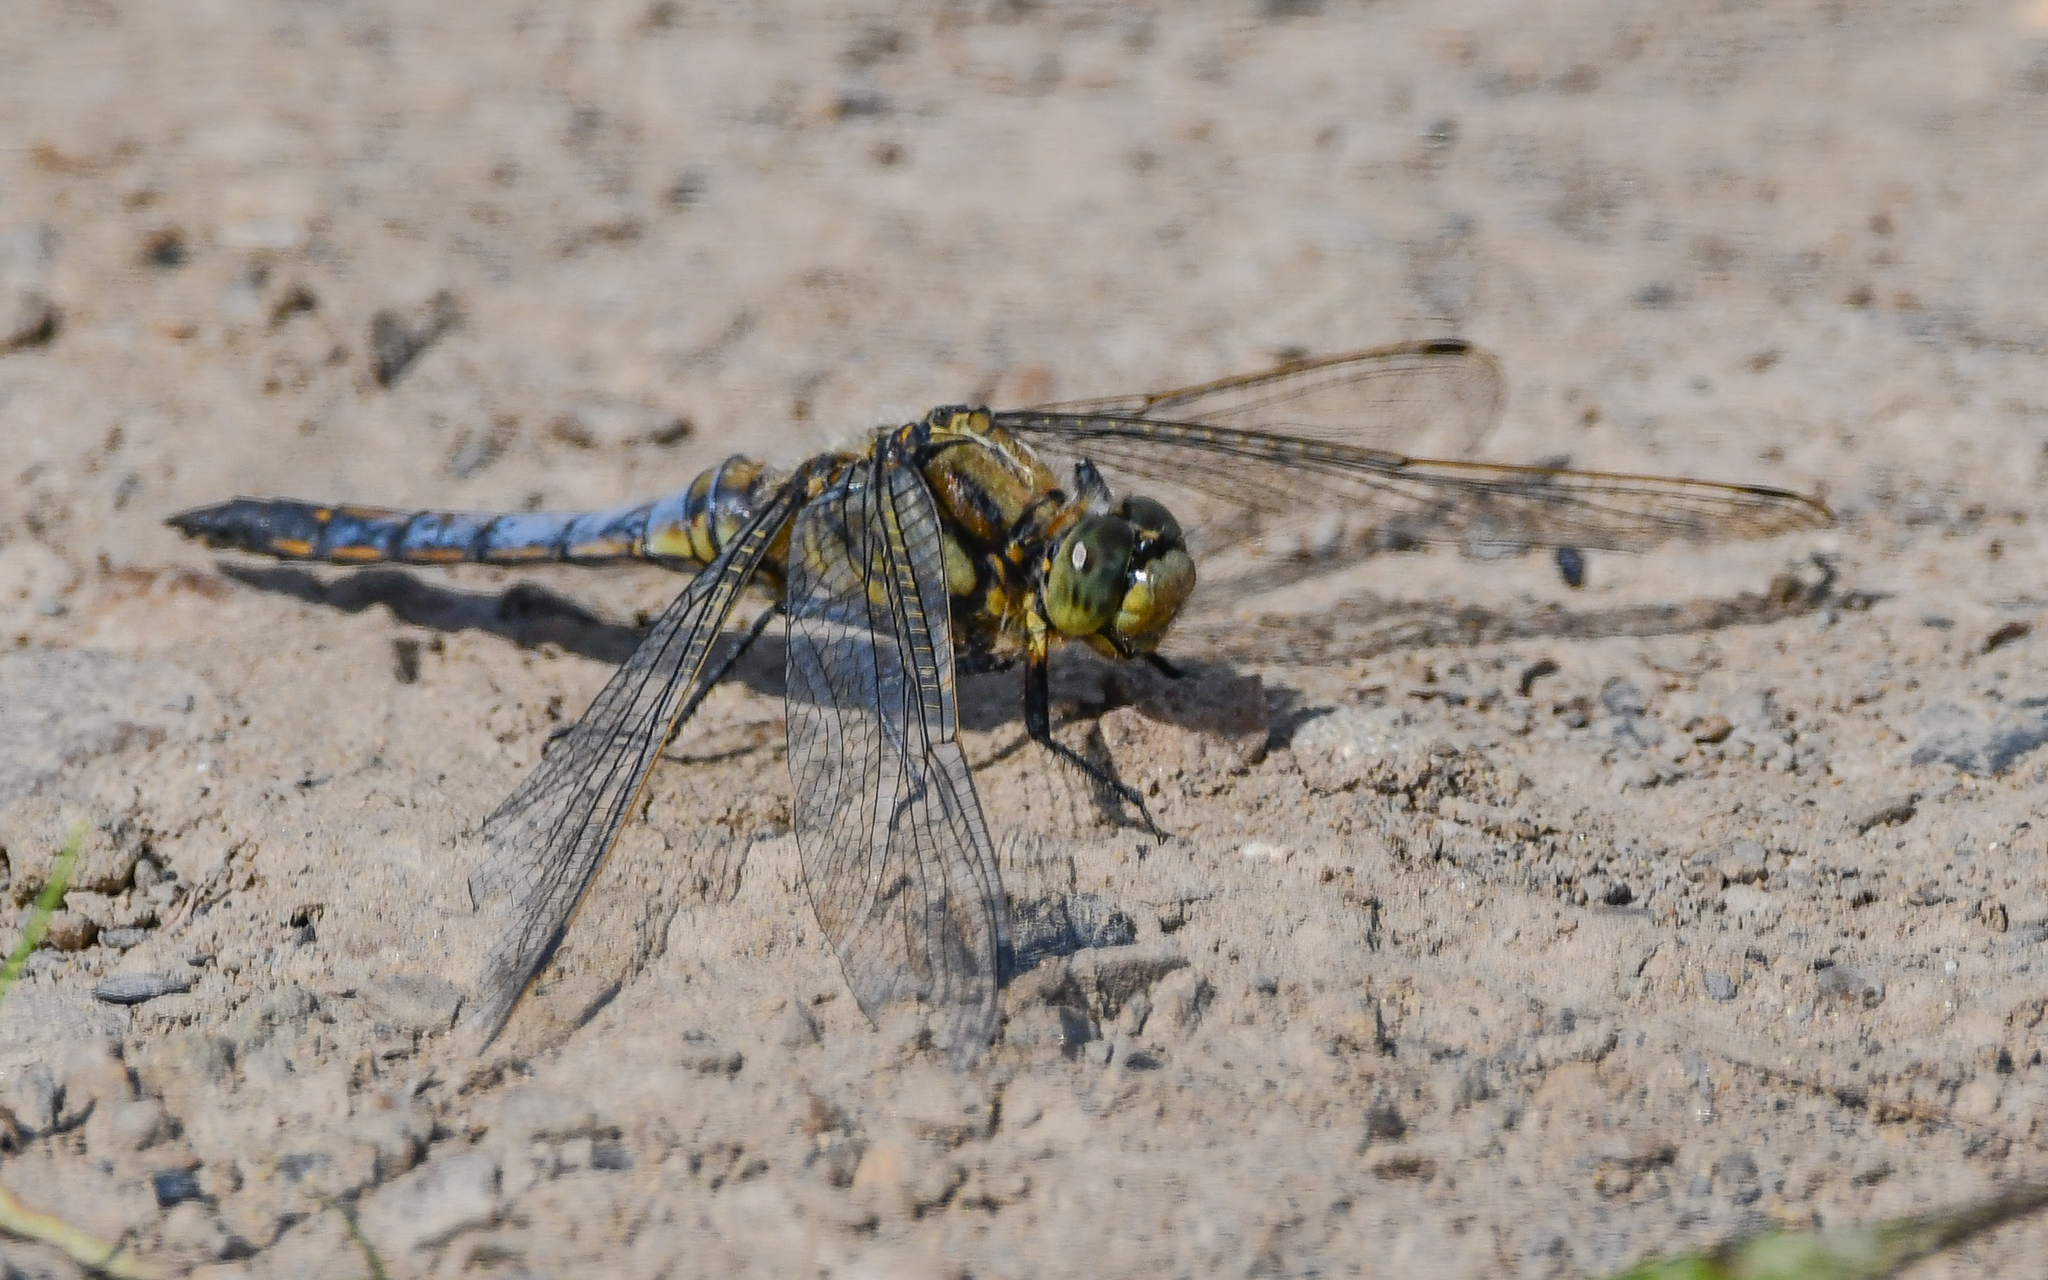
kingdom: Animalia
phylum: Arthropoda
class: Insecta
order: Odonata
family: Libellulidae
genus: Orthetrum
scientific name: Orthetrum cancellatum
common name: Black-tailed skimmer
